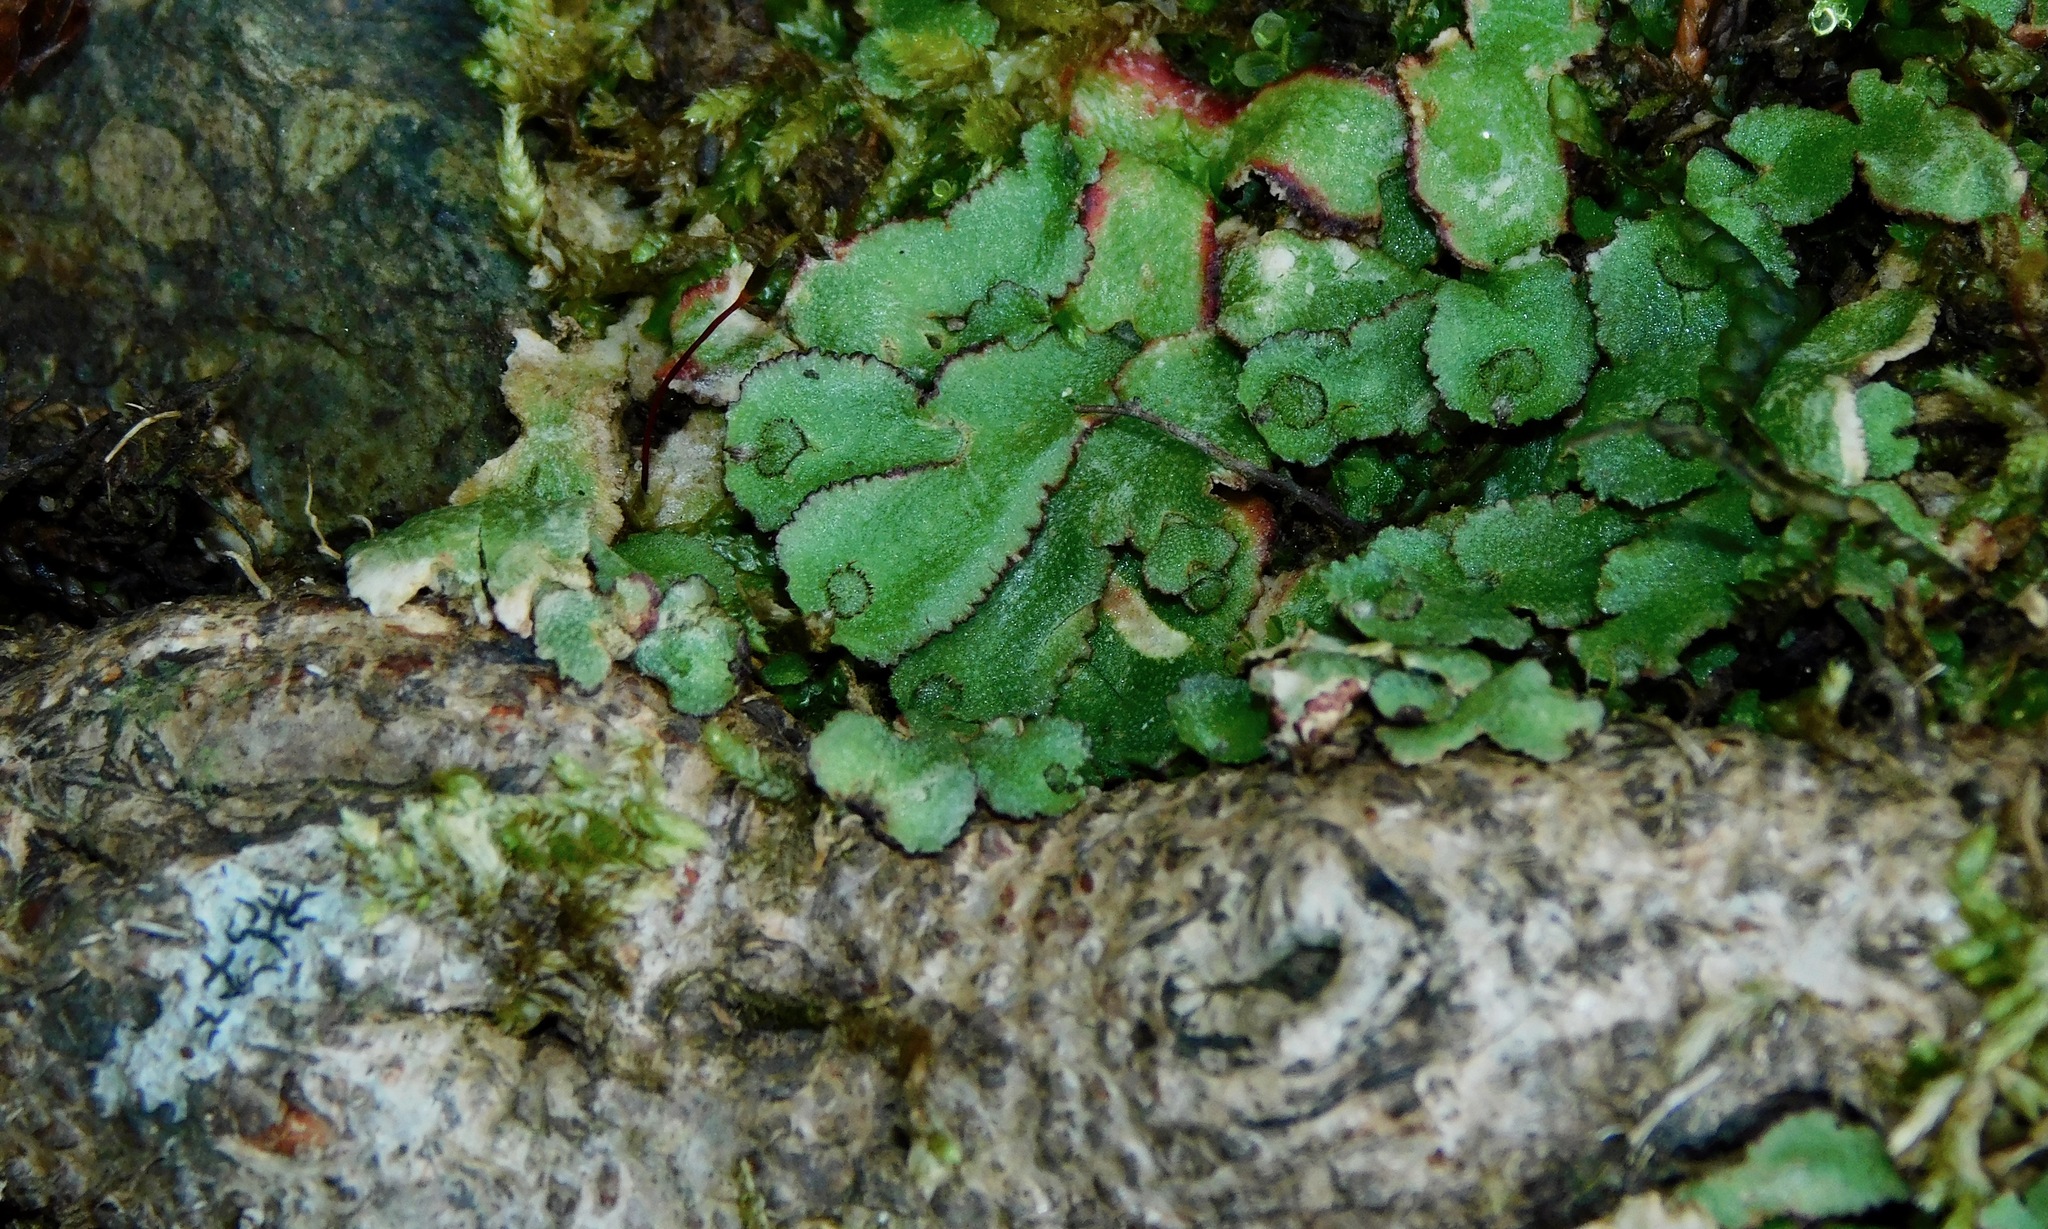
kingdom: Plantae
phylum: Marchantiophyta
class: Marchantiopsida
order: Marchantiales
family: Aytoniaceae
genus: Reboulia
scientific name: Reboulia hemisphaerica
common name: Purple-margined liverwort
